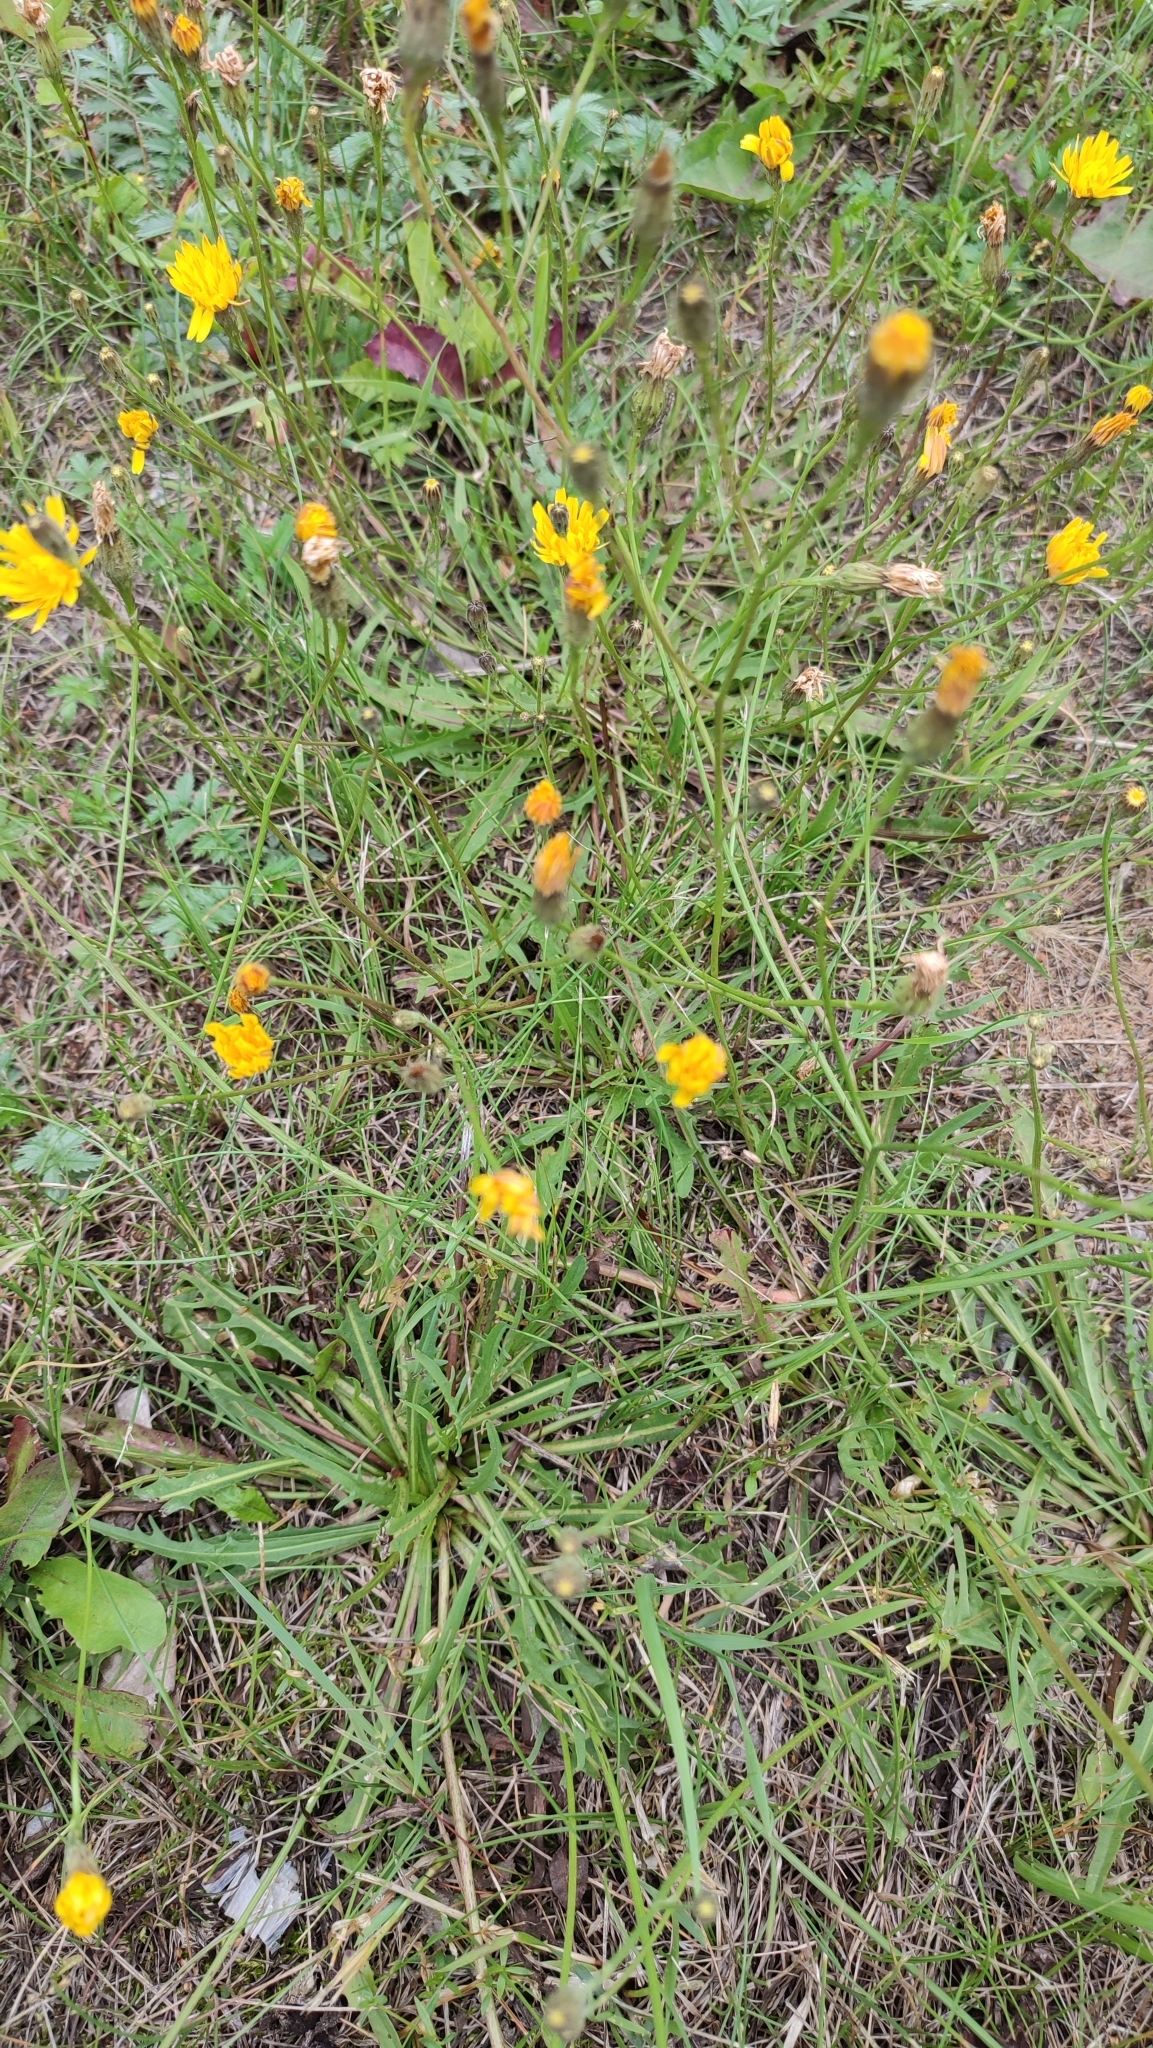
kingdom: Plantae
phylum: Tracheophyta
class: Magnoliopsida
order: Asterales
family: Asteraceae
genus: Scorzoneroides
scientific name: Scorzoneroides autumnalis
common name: Autumn hawkbit
